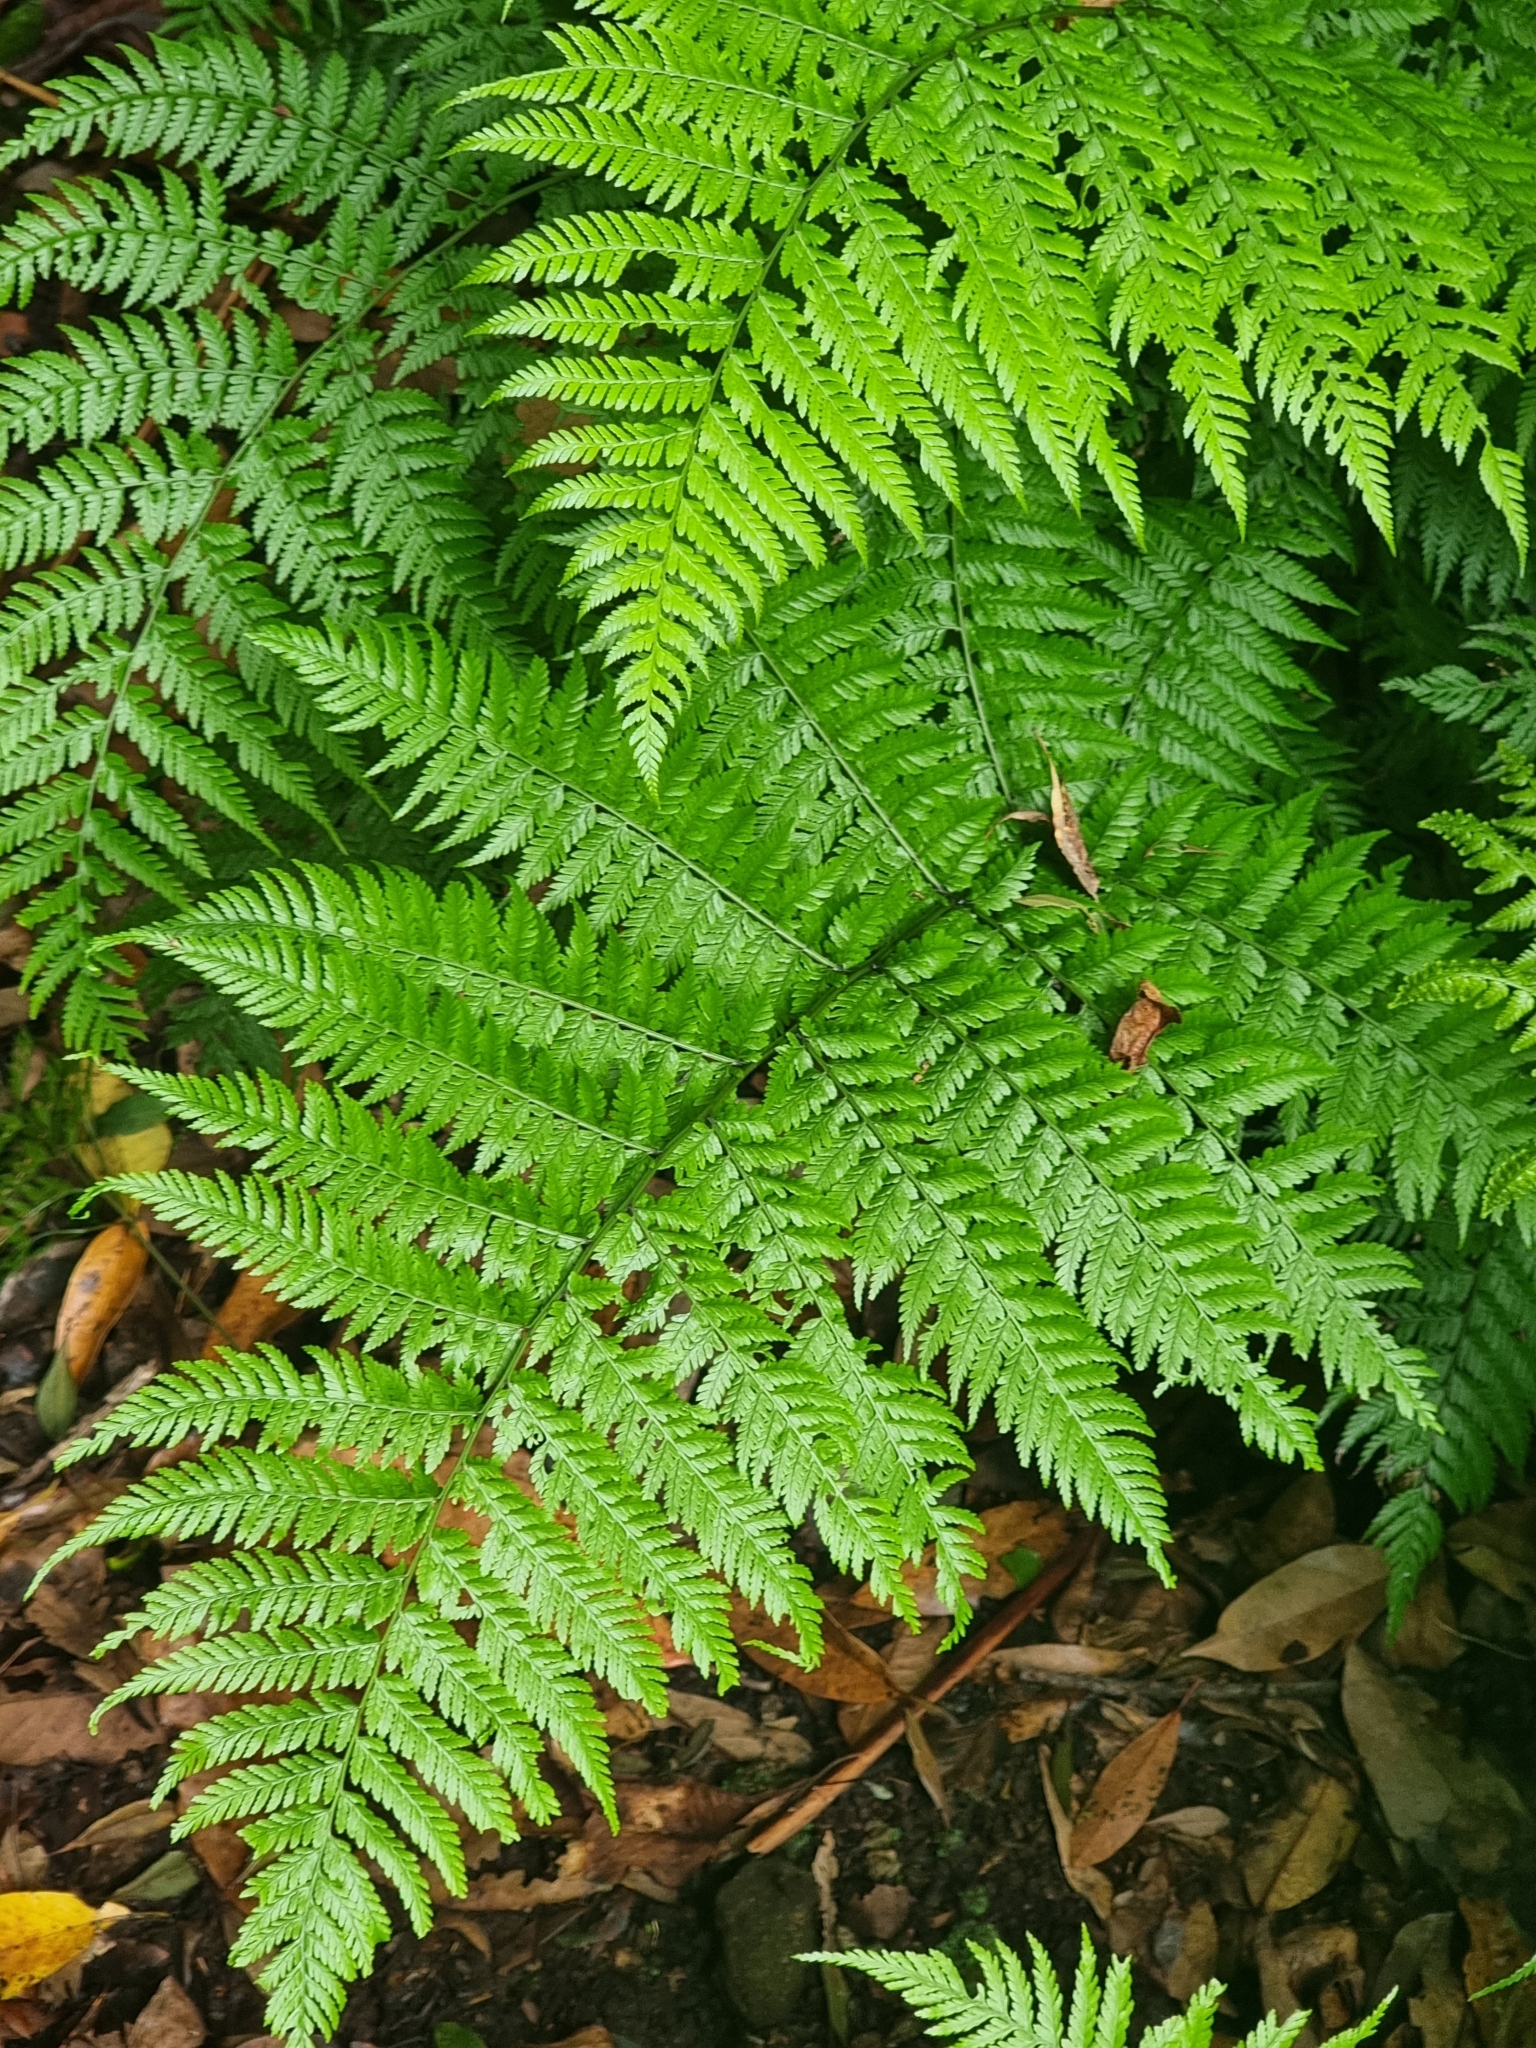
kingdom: Plantae
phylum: Tracheophyta
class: Polypodiopsida
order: Polypodiales
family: Athyriaceae
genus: Diplazium
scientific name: Diplazium caudatum
